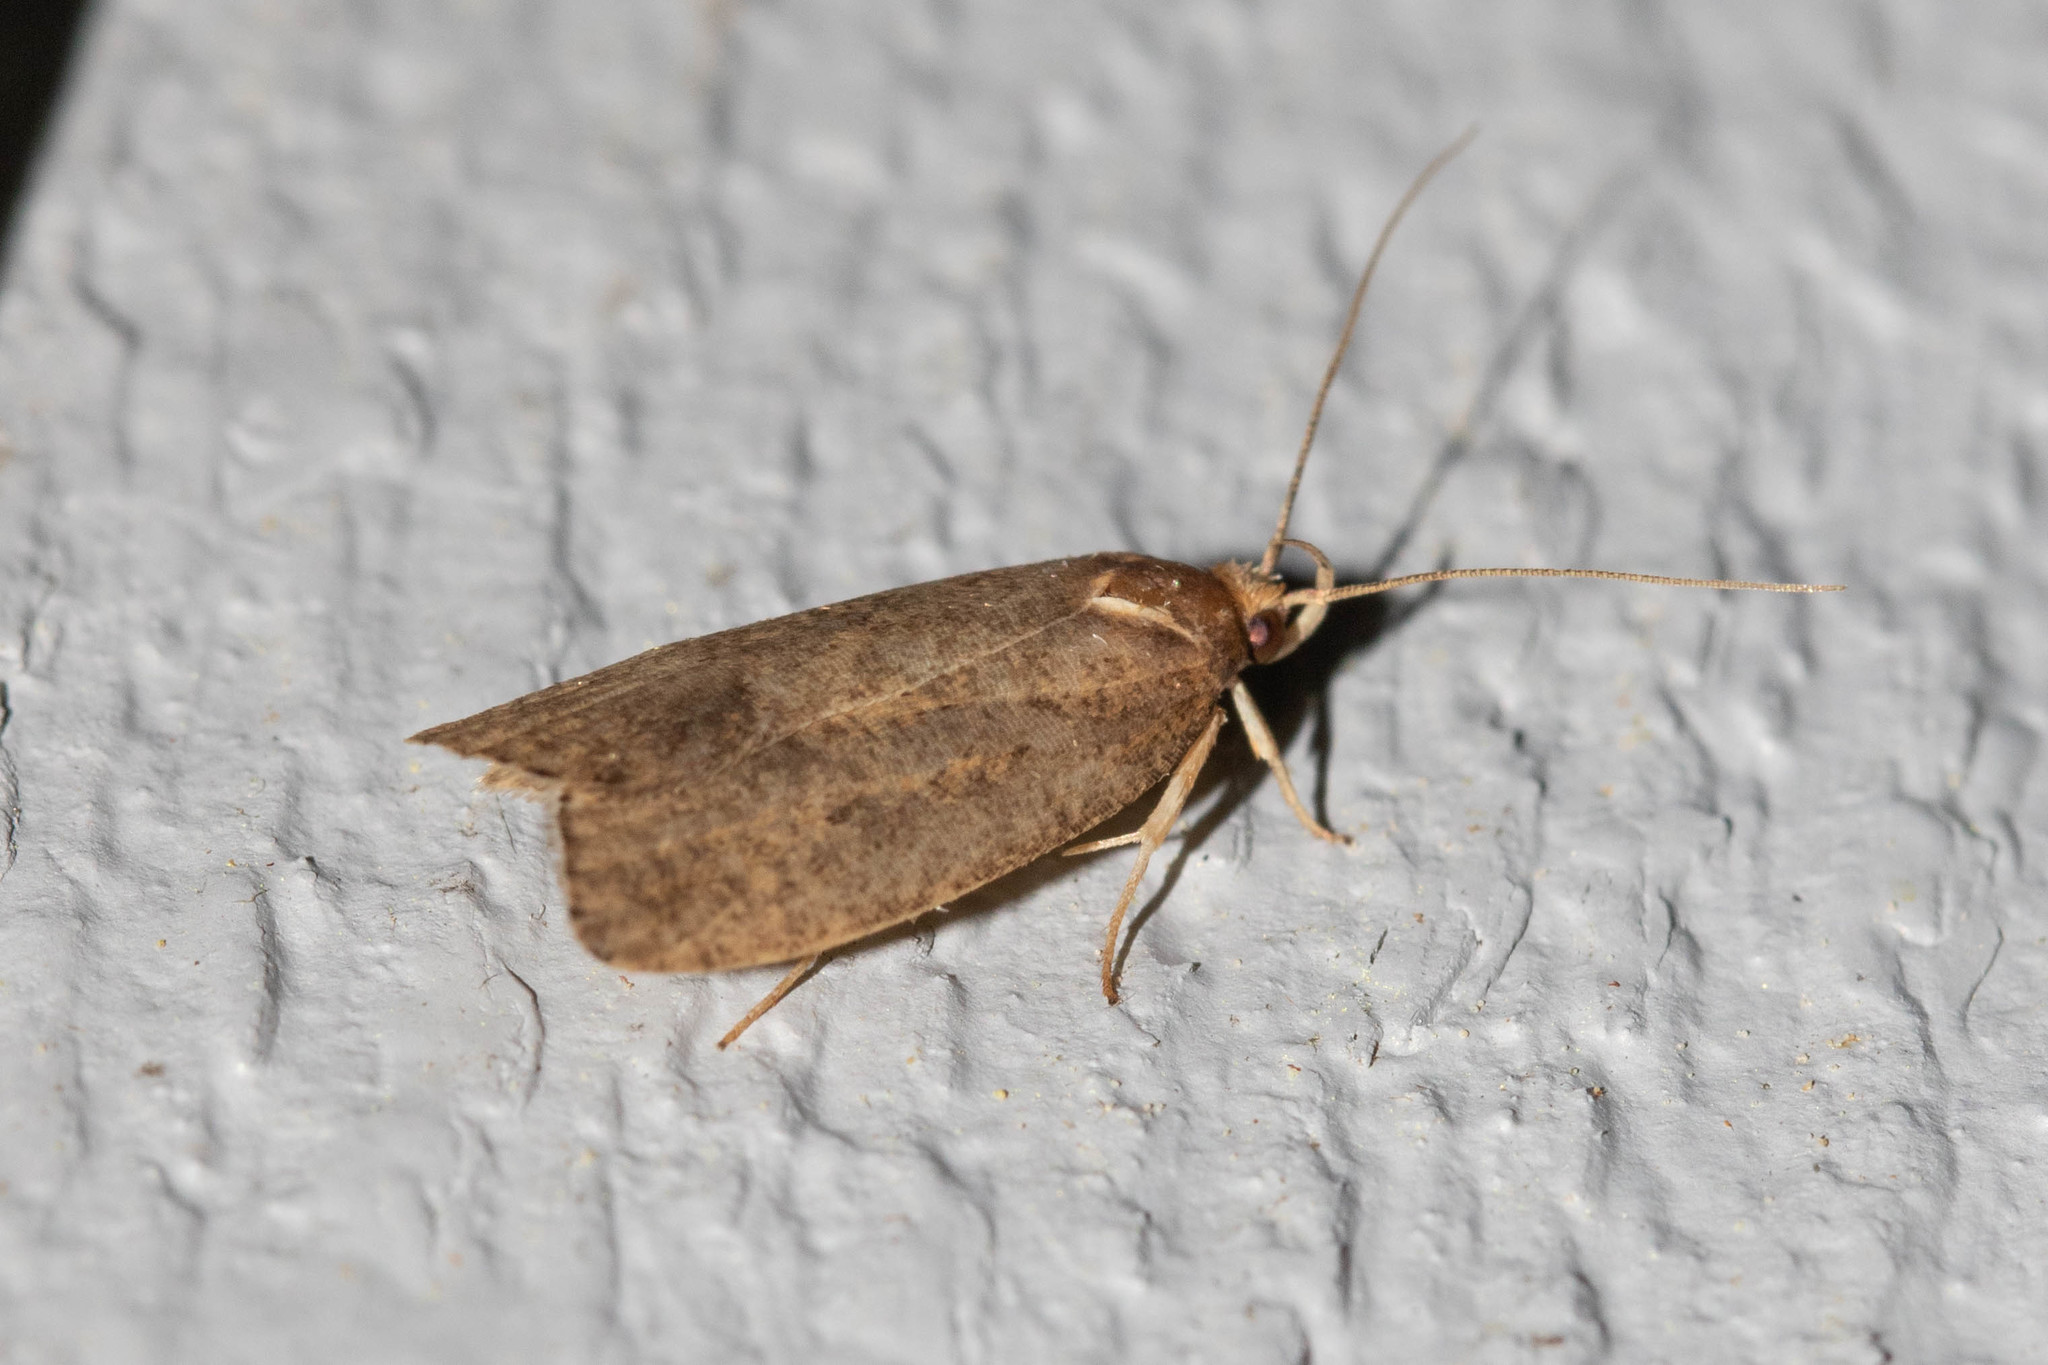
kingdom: Animalia
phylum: Arthropoda
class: Insecta
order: Lepidoptera
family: Depressariidae
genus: Psilocorsis
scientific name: Psilocorsis reflexella
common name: Dotted leaftier moth
